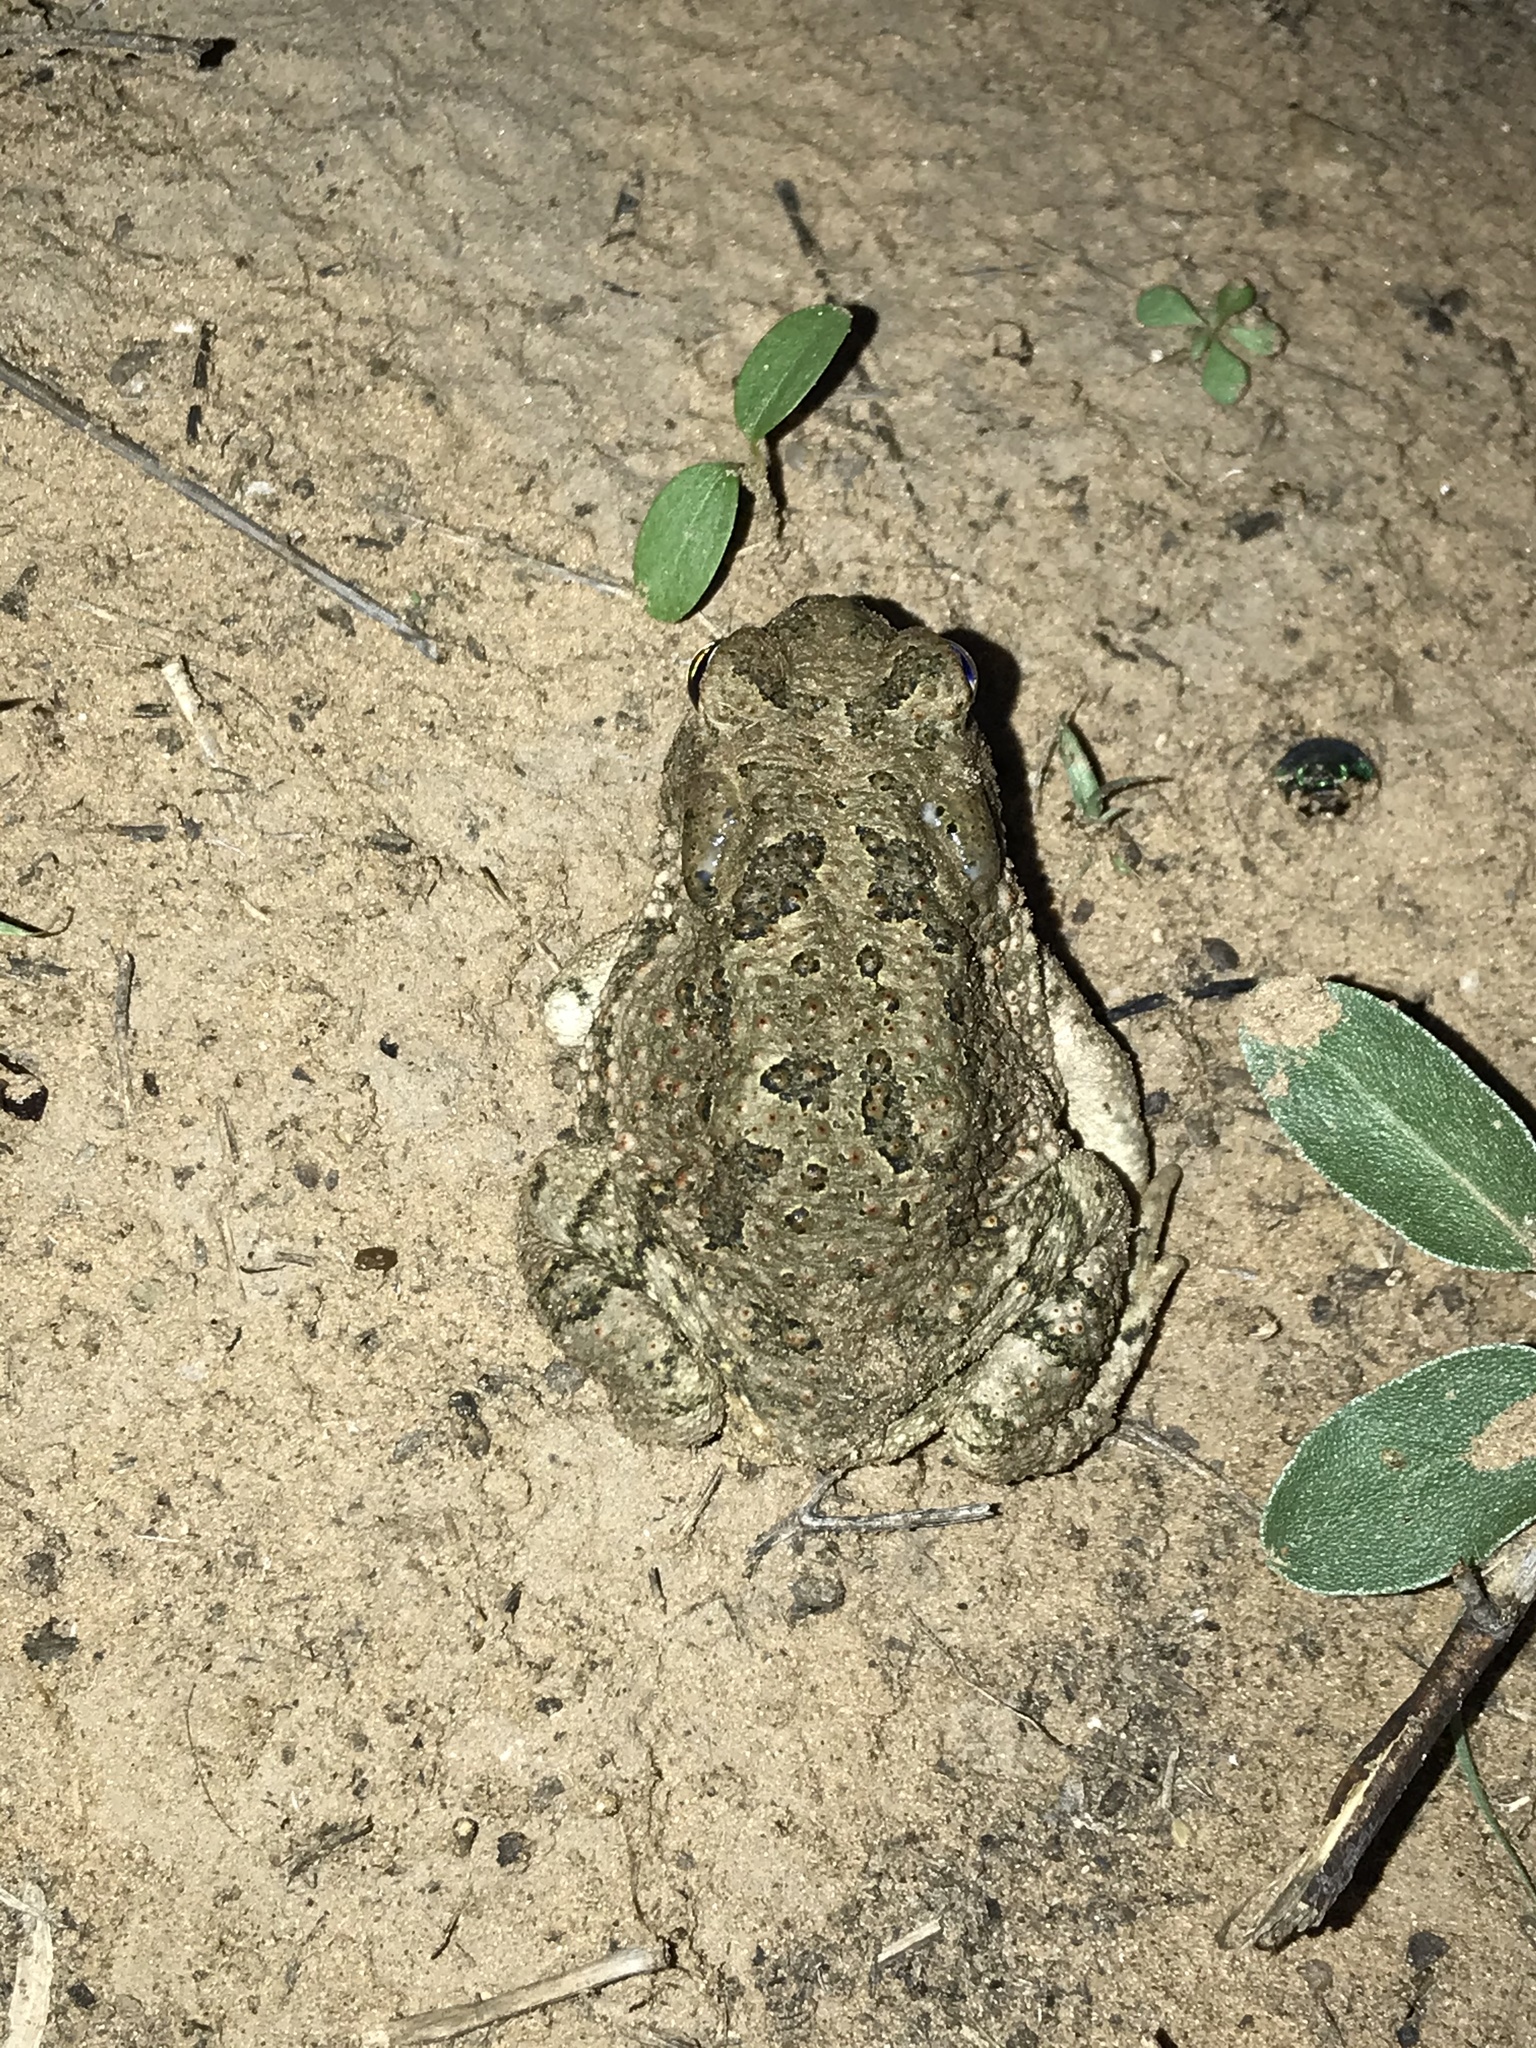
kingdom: Animalia
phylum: Chordata
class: Amphibia
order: Anura
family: Bufonidae
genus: Anaxyrus
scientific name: Anaxyrus speciosus
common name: Texas toad
